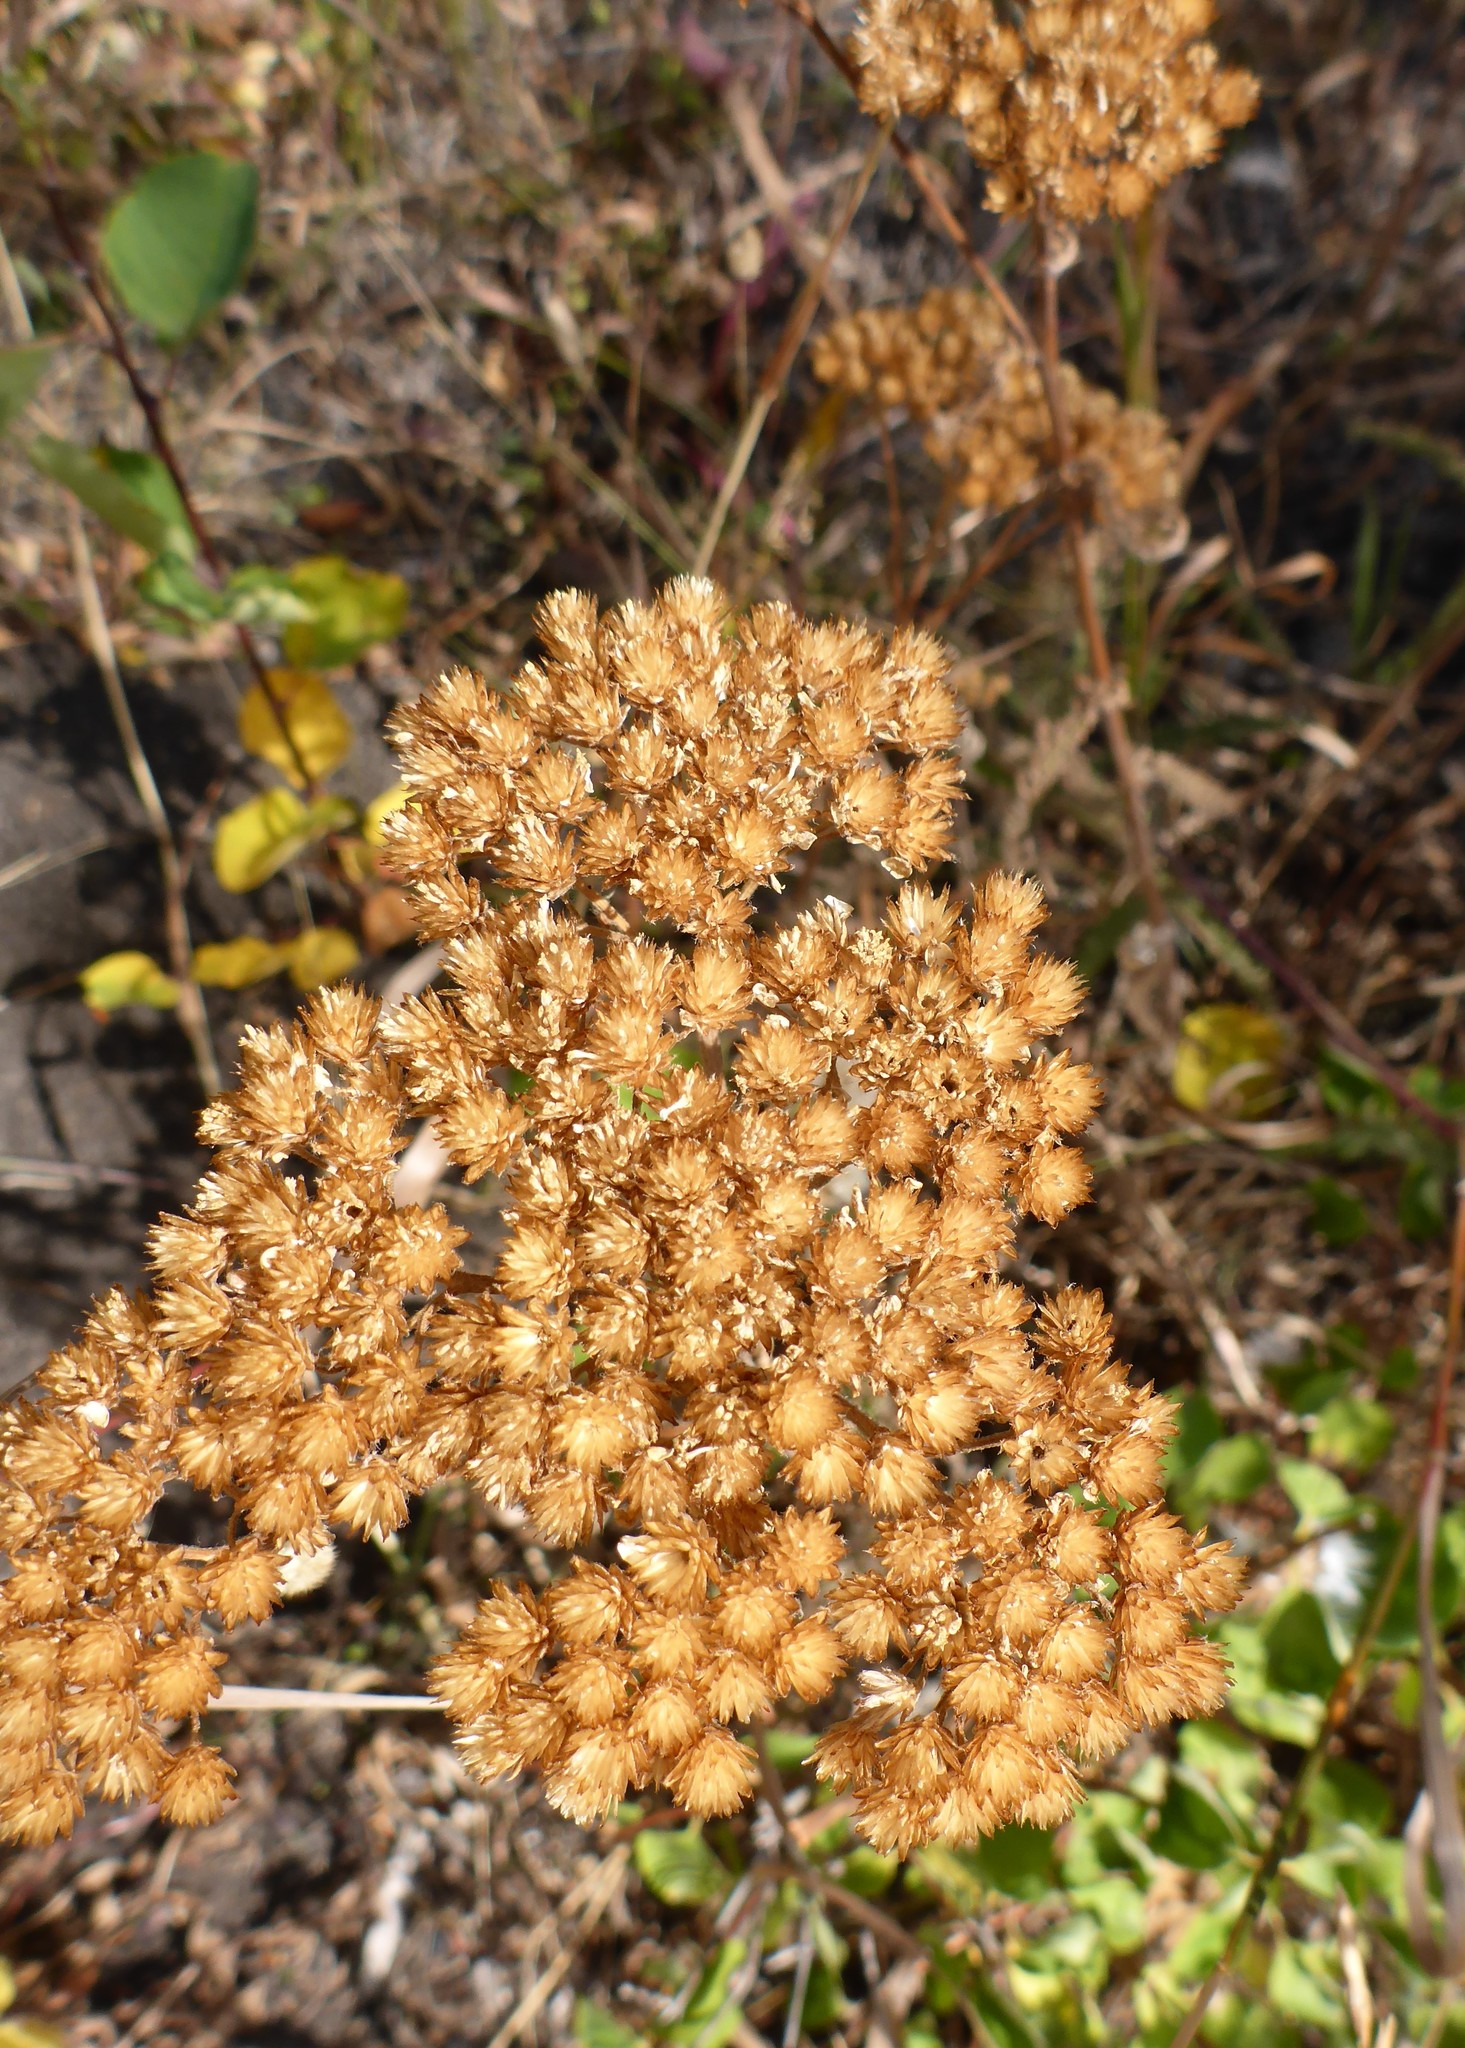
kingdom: Plantae
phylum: Tracheophyta
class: Magnoliopsida
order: Asterales
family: Asteraceae
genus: Achillea
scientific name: Achillea millefolium
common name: Yarrow
